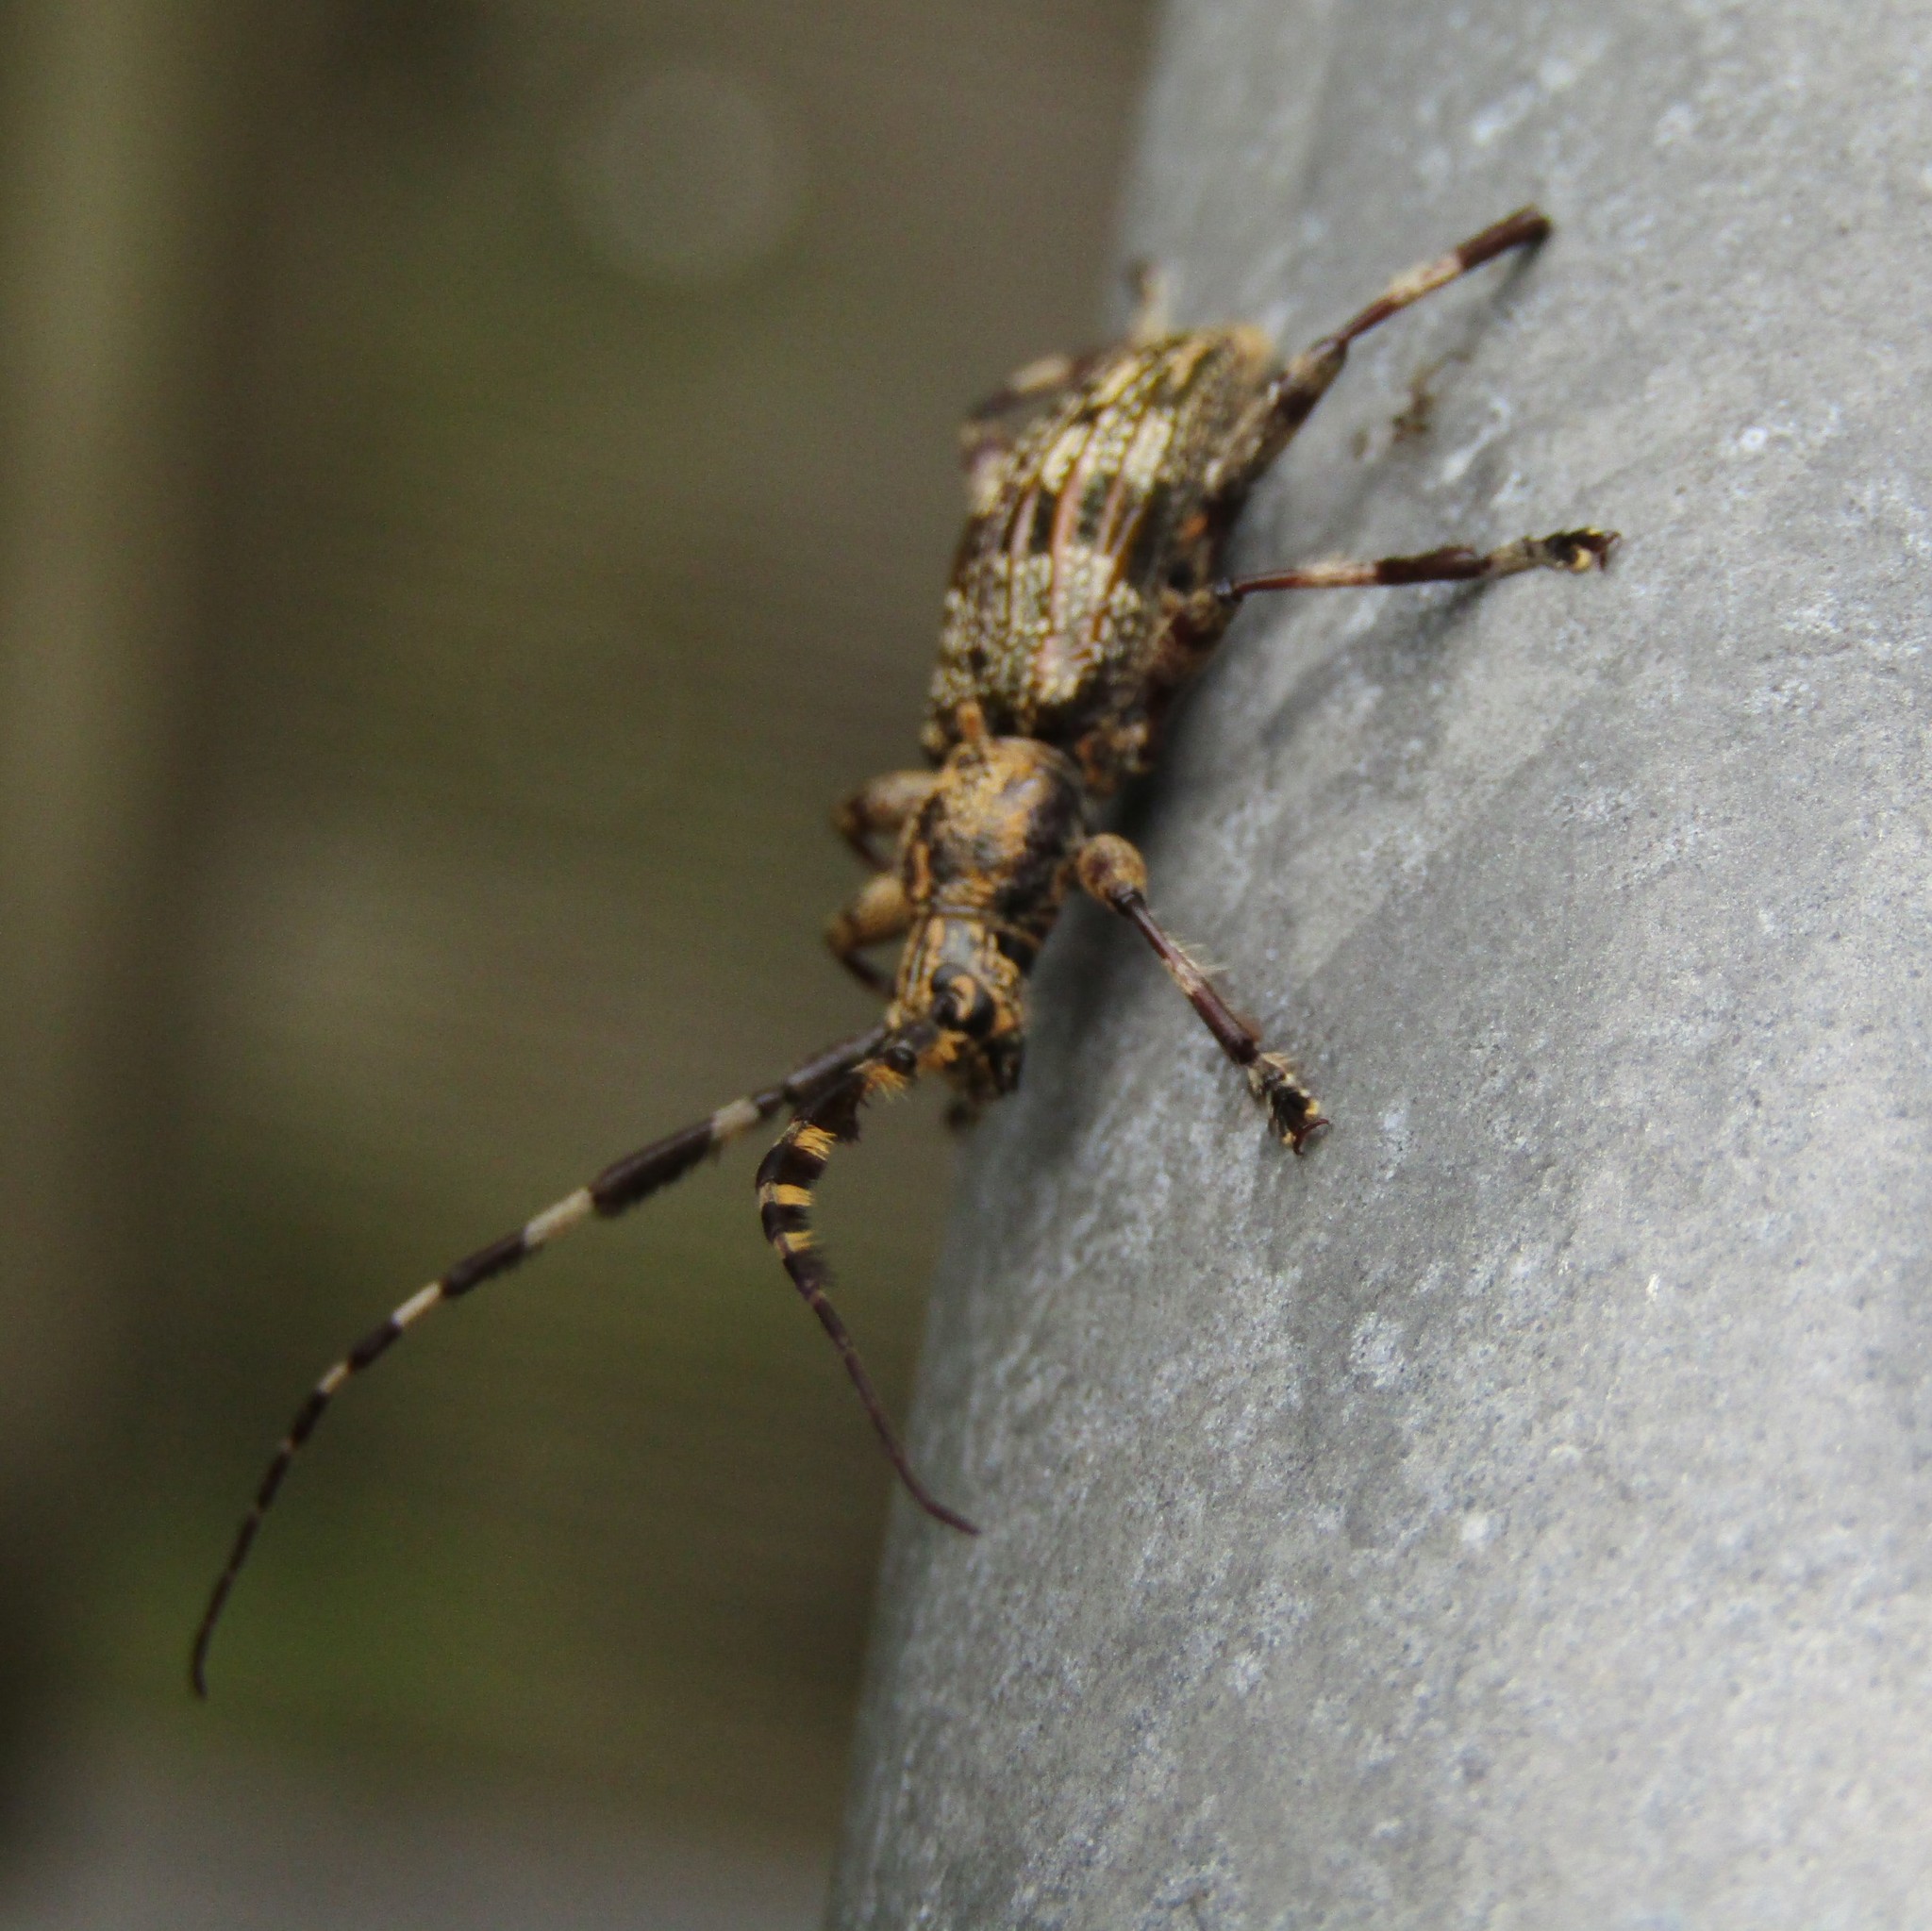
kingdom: Animalia
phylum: Arthropoda
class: Insecta
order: Coleoptera
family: Cerambycidae
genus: Hexatricha
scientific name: Hexatricha pulverulenta
